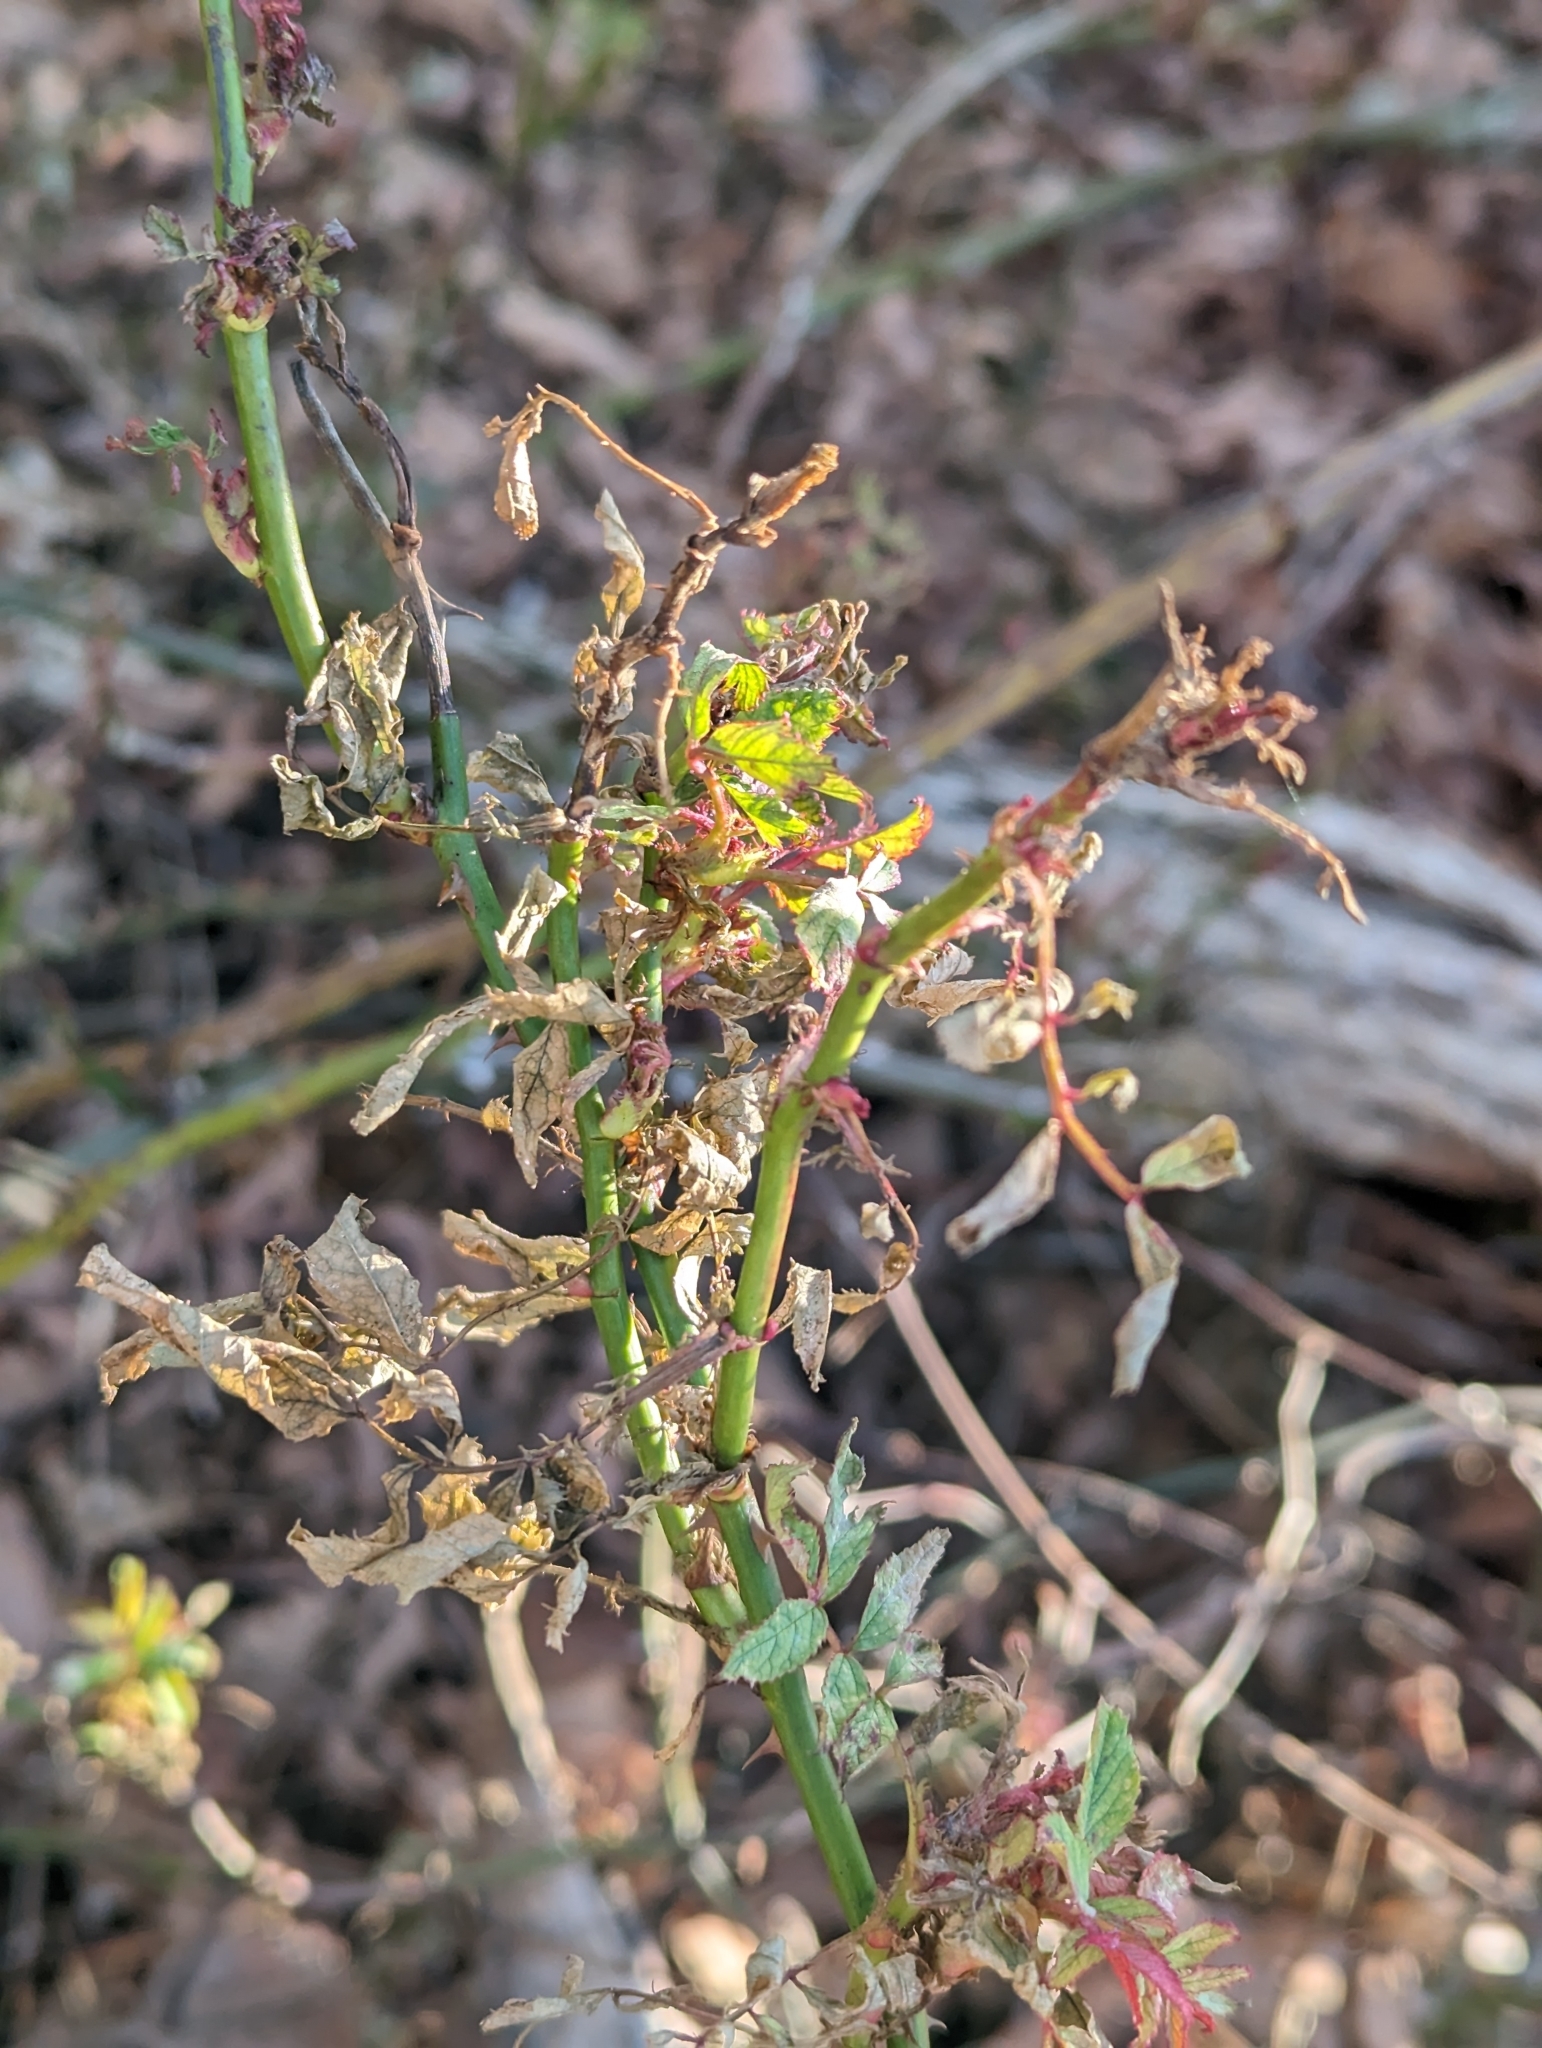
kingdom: Viruses
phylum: Negarnaviricota
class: Ellioviricetes
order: Bunyavirales
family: Fimoviridae
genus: Emaravirus
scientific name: Emaravirus rosae
